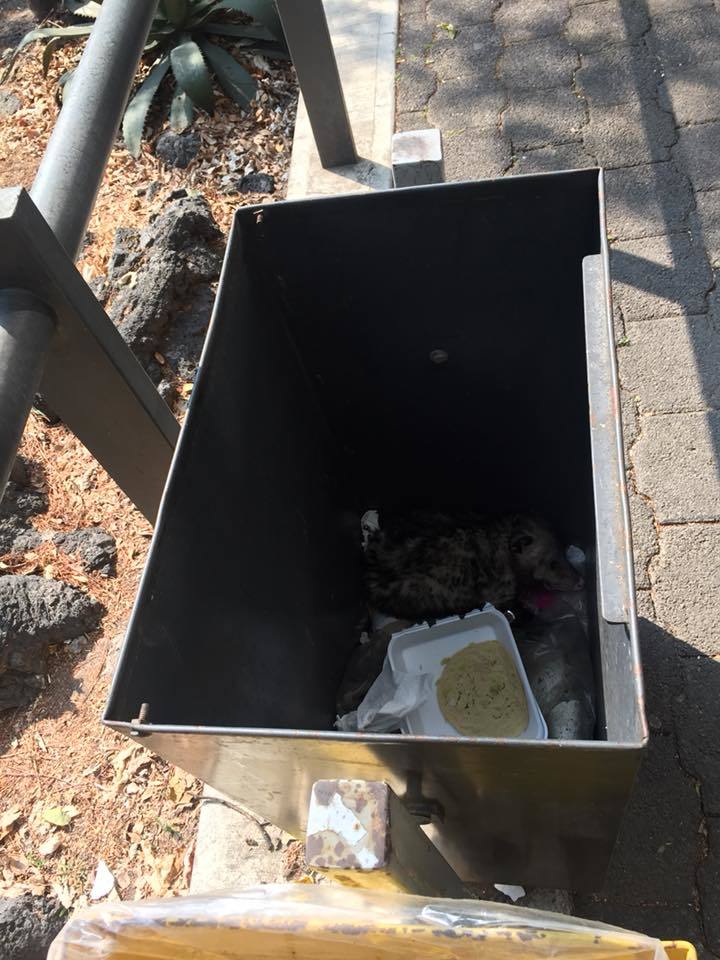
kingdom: Animalia
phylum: Chordata
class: Mammalia
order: Didelphimorphia
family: Didelphidae
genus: Didelphis
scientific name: Didelphis virginiana
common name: Virginia opossum
